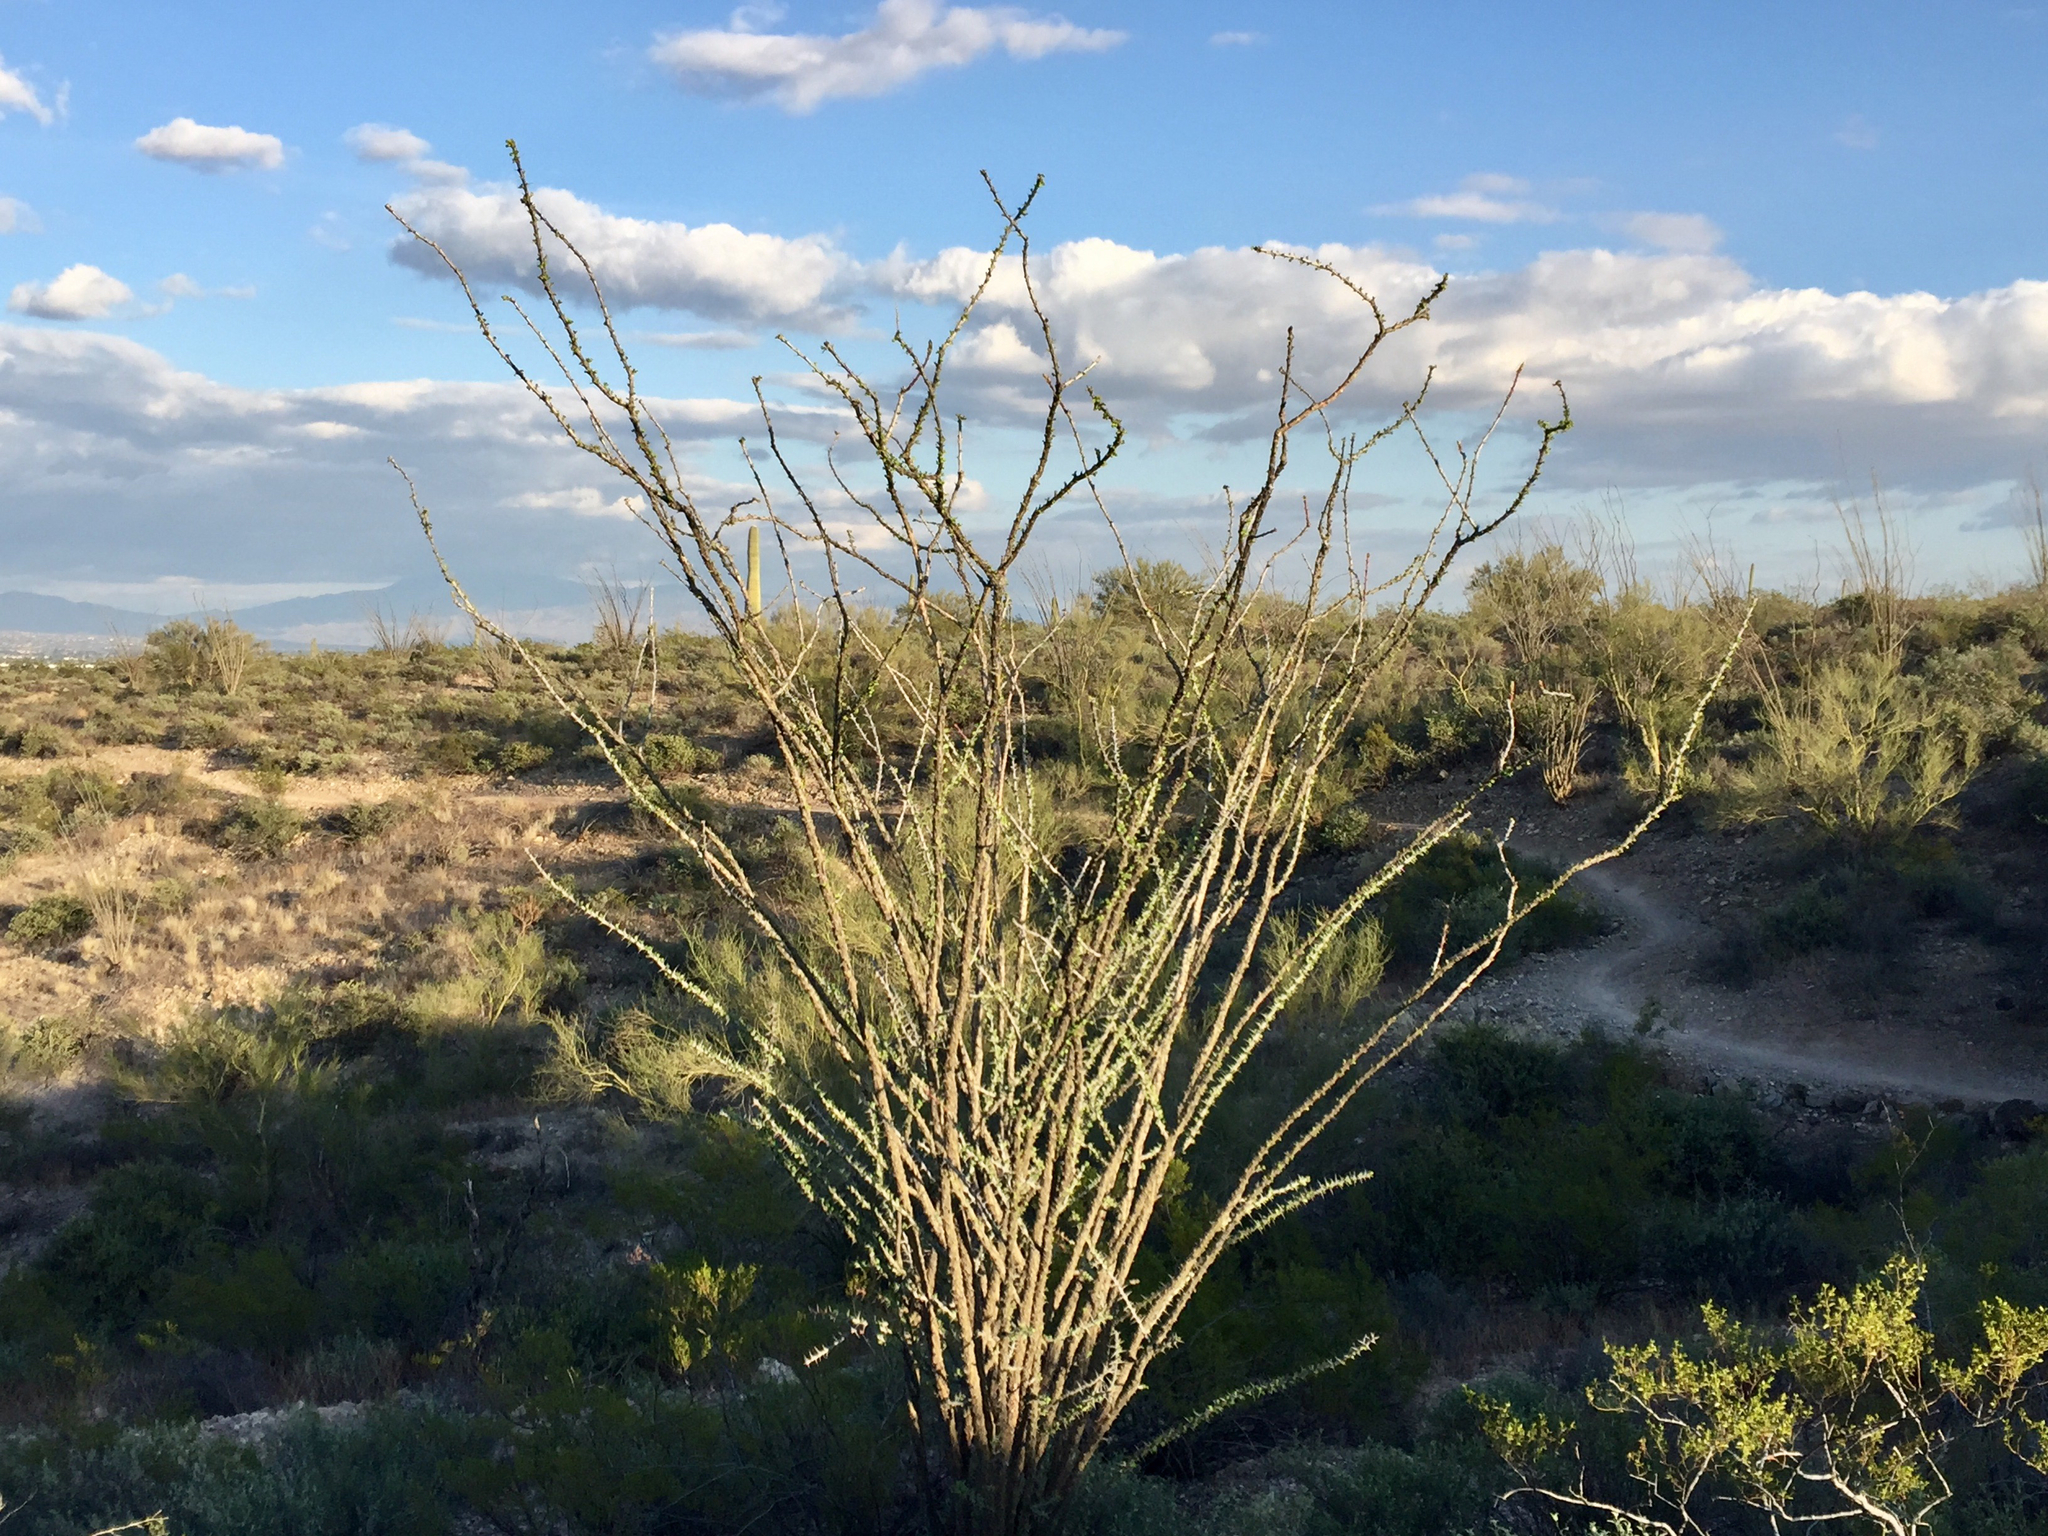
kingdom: Plantae
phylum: Tracheophyta
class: Magnoliopsida
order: Ericales
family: Fouquieriaceae
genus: Fouquieria
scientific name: Fouquieria splendens
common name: Vine-cactus
